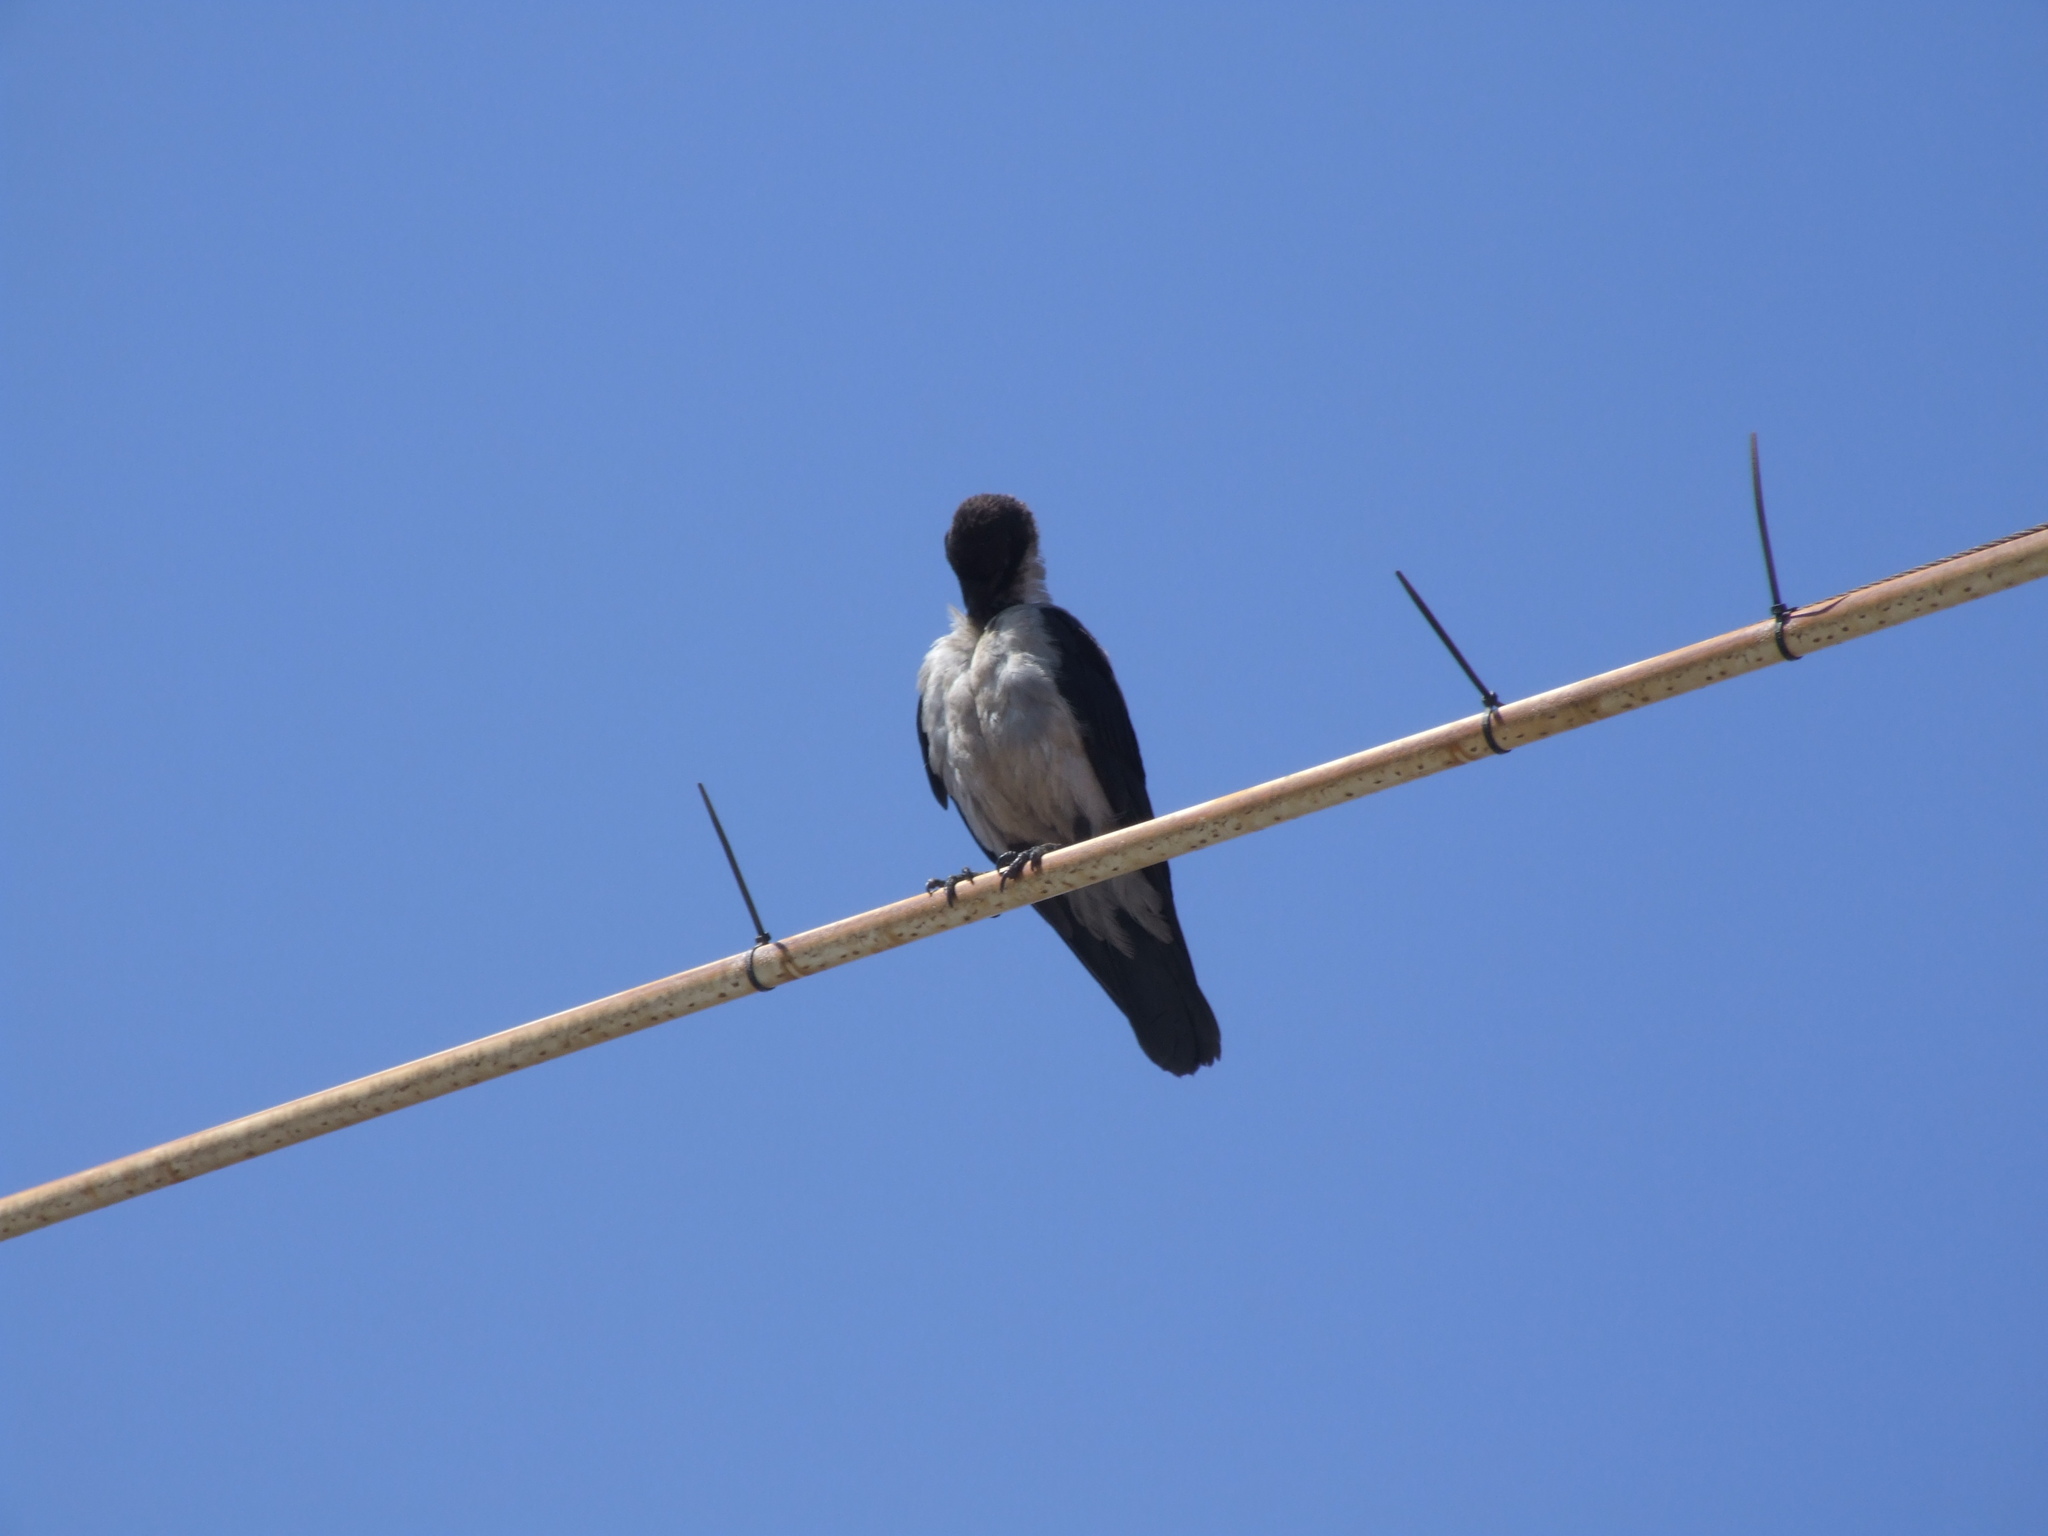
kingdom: Animalia
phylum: Chordata
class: Aves
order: Passeriformes
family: Corvidae
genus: Corvus
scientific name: Corvus cornix
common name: Hooded crow
